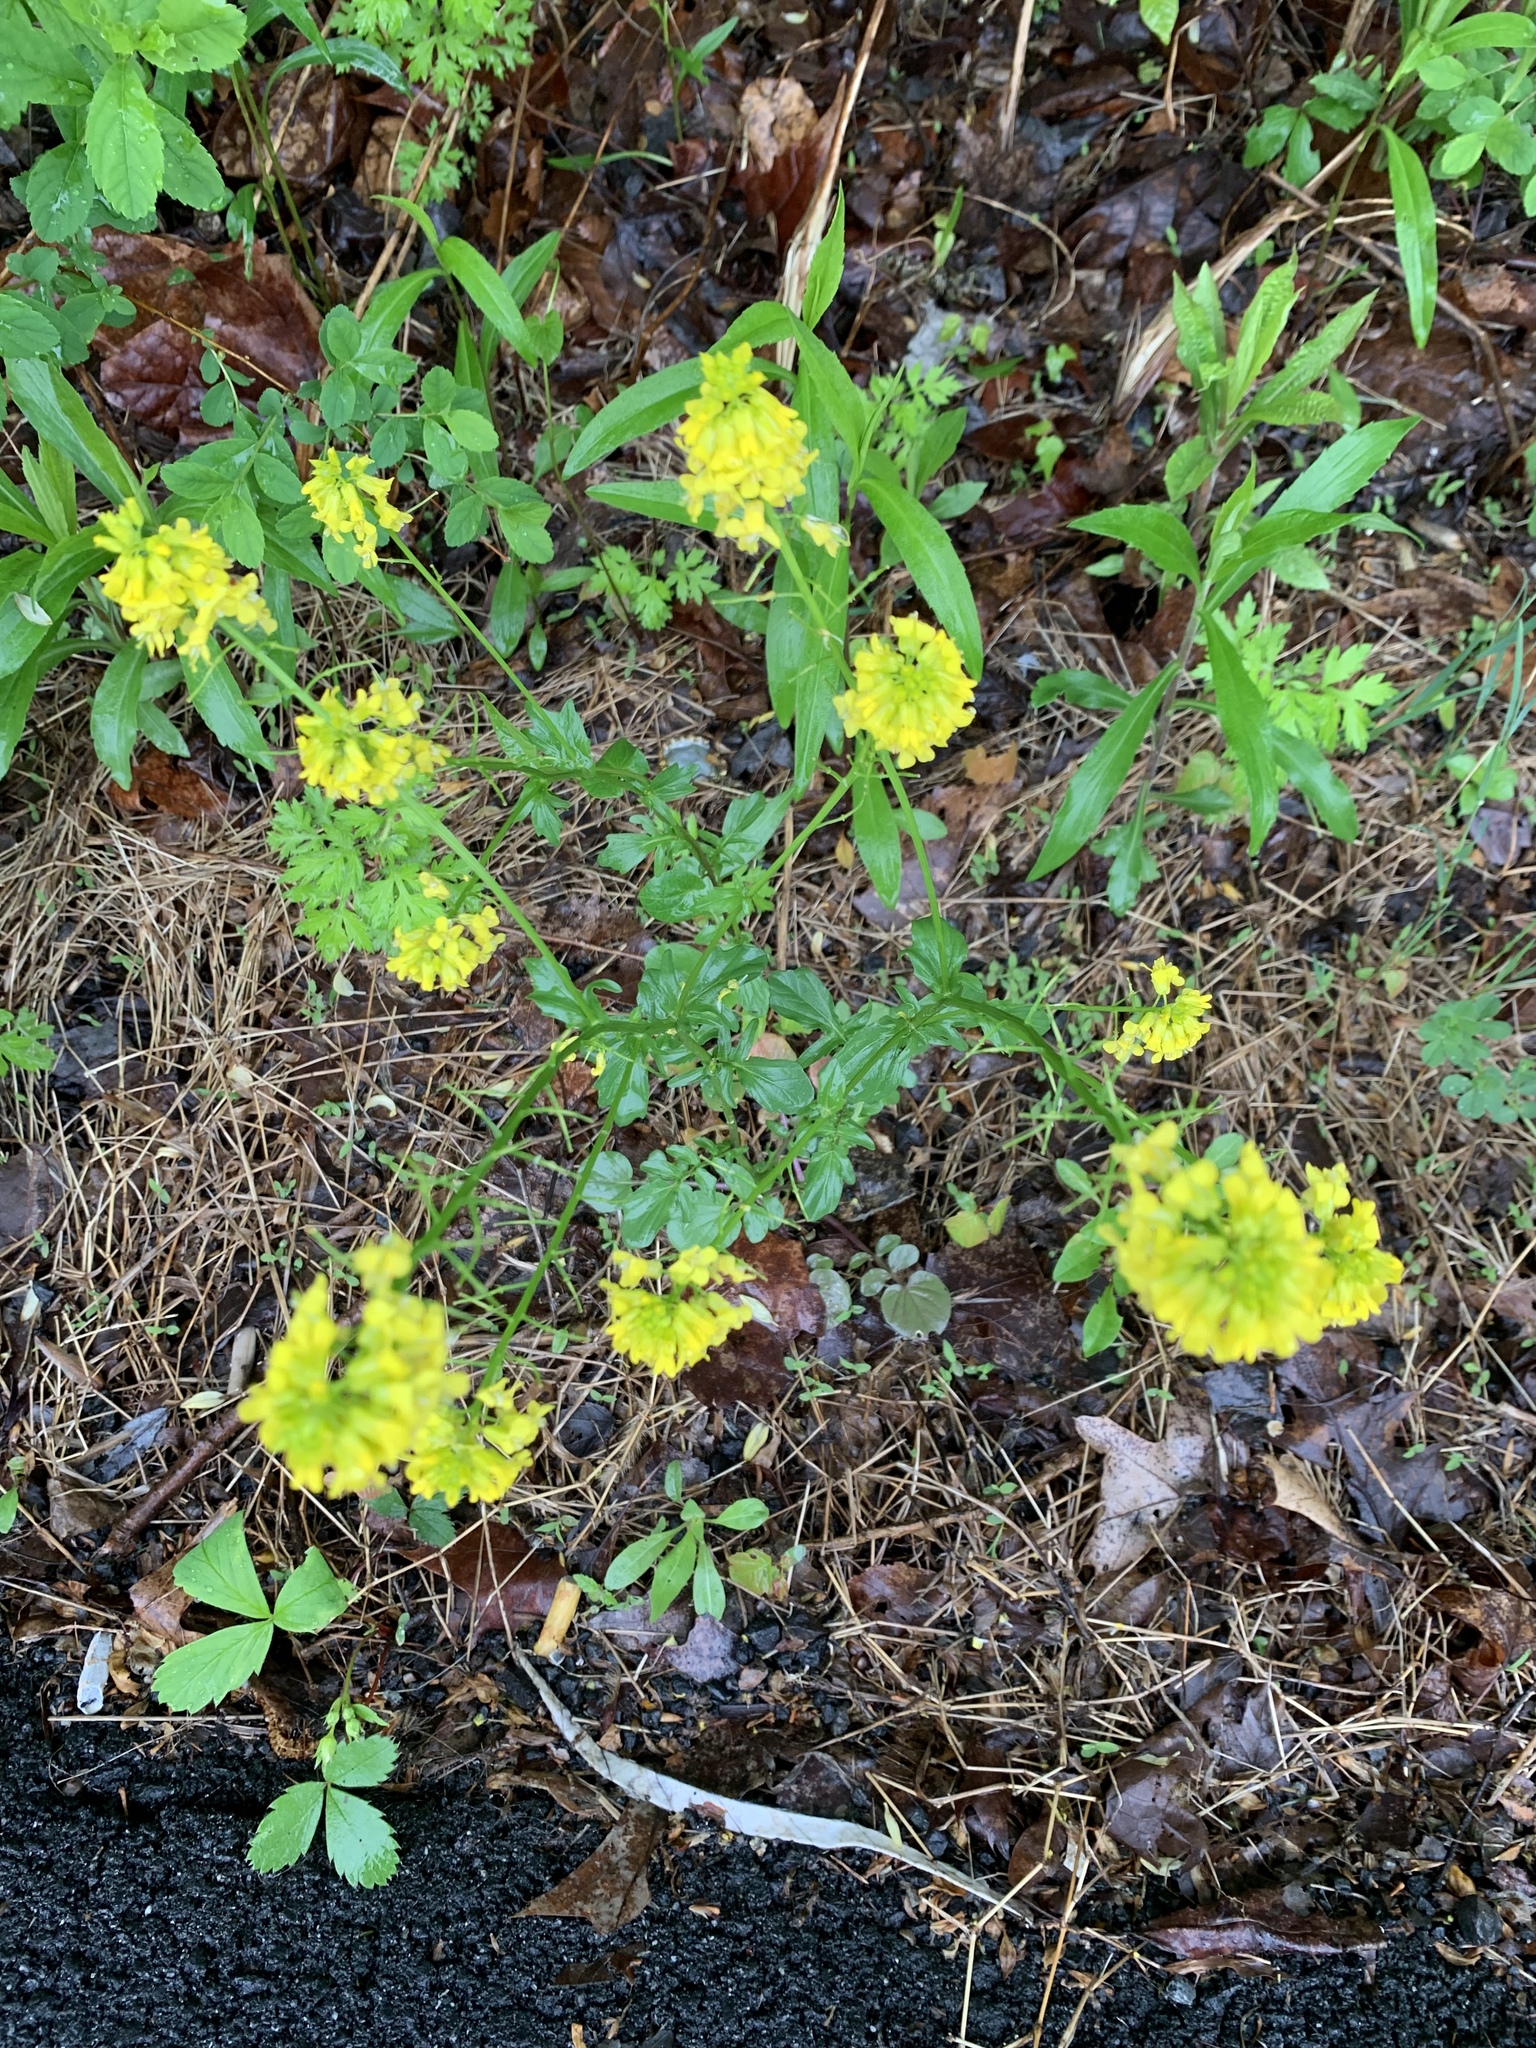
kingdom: Plantae
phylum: Tracheophyta
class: Magnoliopsida
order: Brassicales
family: Brassicaceae
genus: Barbarea
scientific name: Barbarea vulgaris
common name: Cressy-greens
